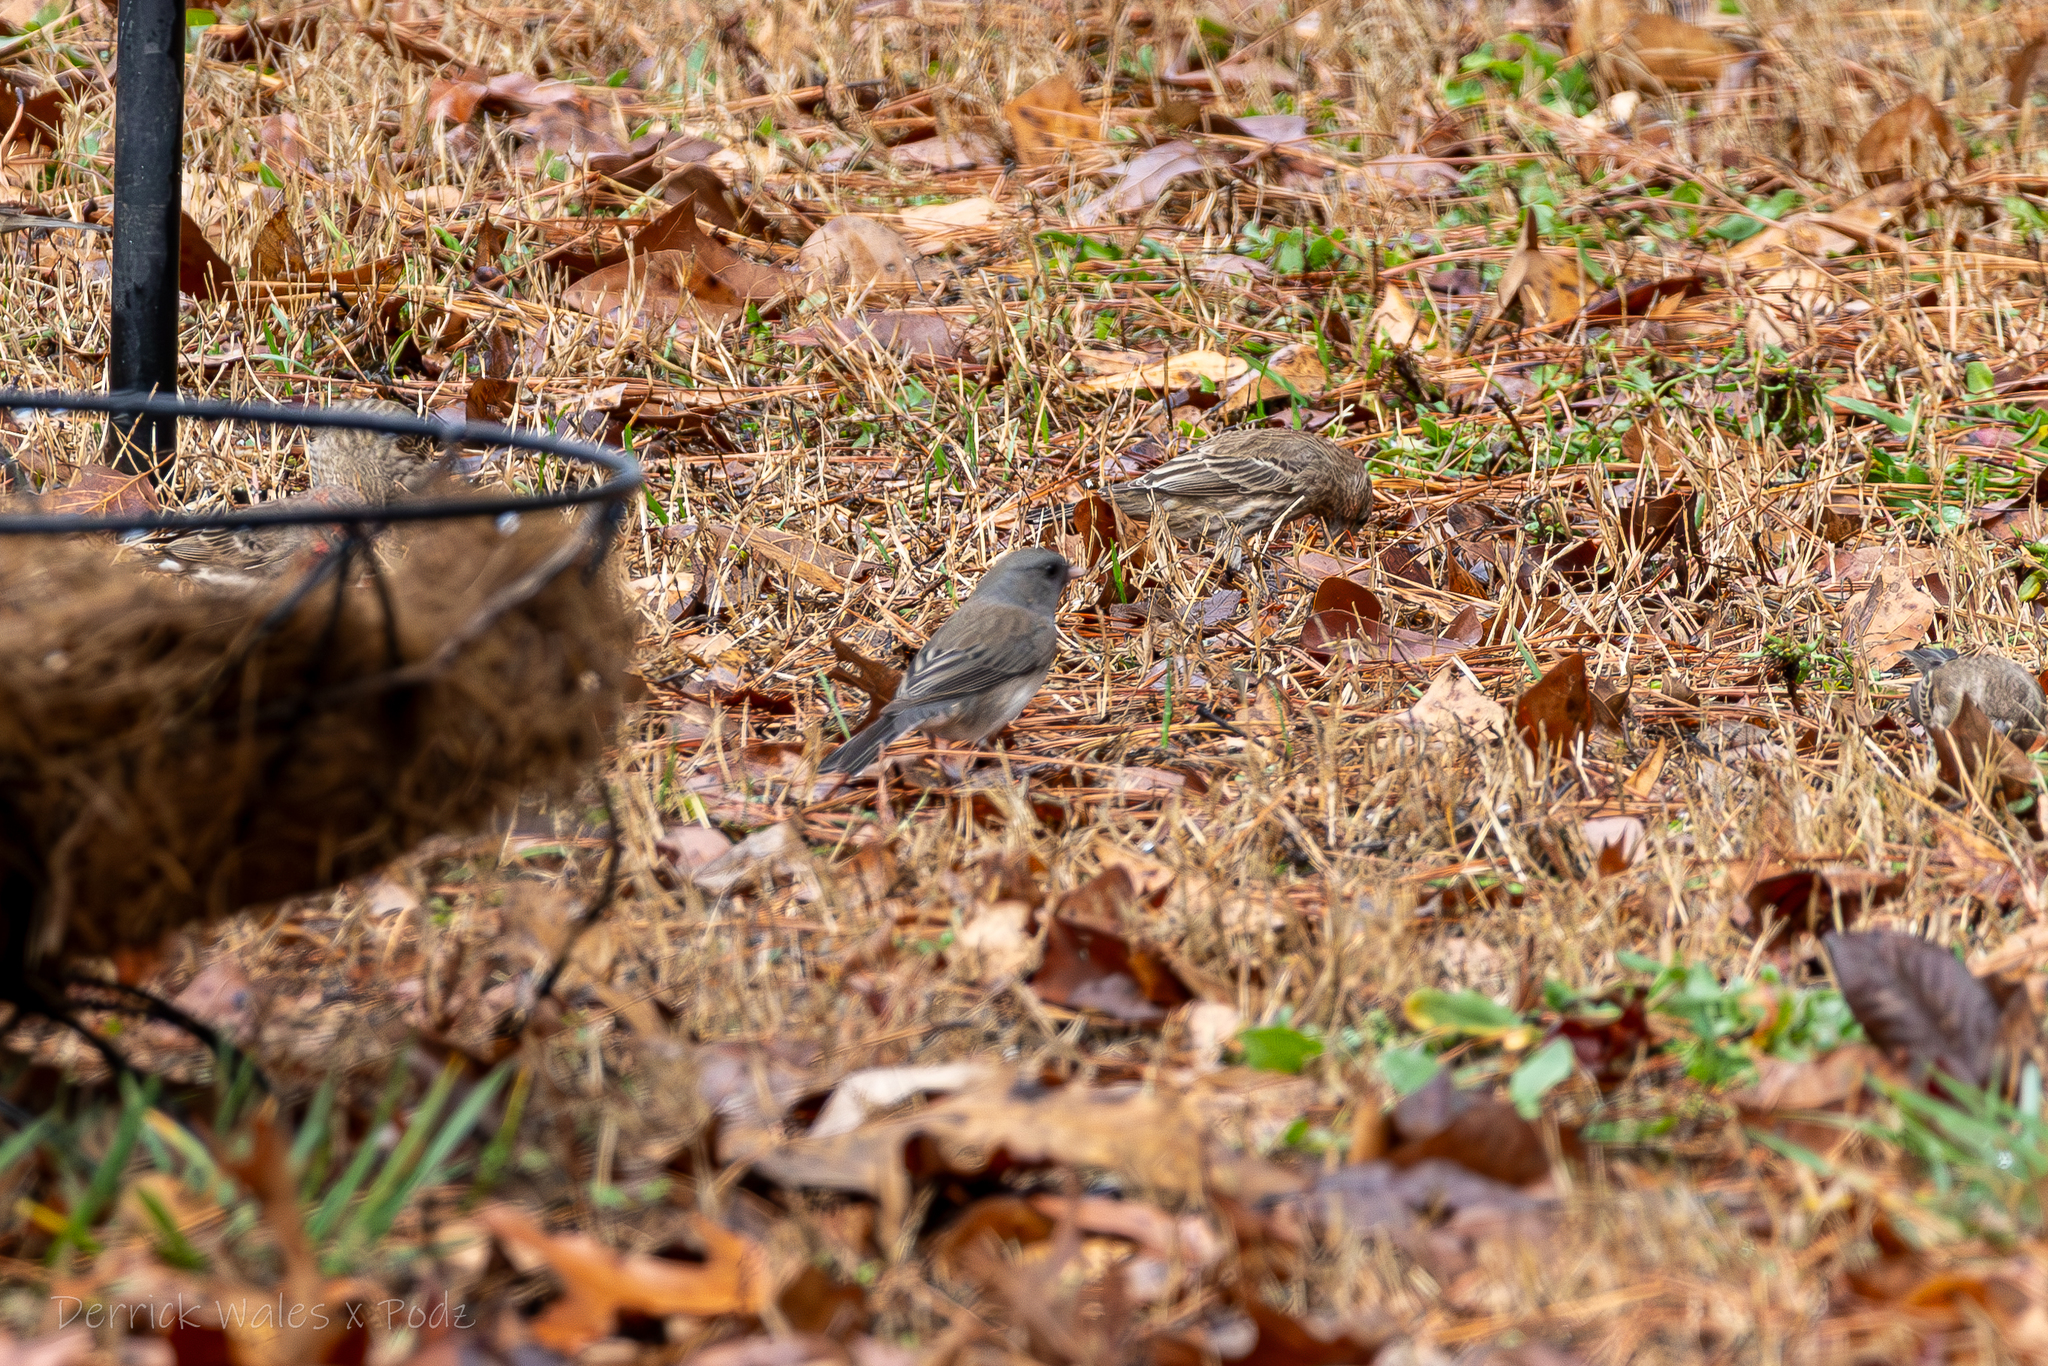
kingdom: Animalia
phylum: Chordata
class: Aves
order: Passeriformes
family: Passerellidae
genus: Junco
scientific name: Junco hyemalis
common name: Dark-eyed junco
